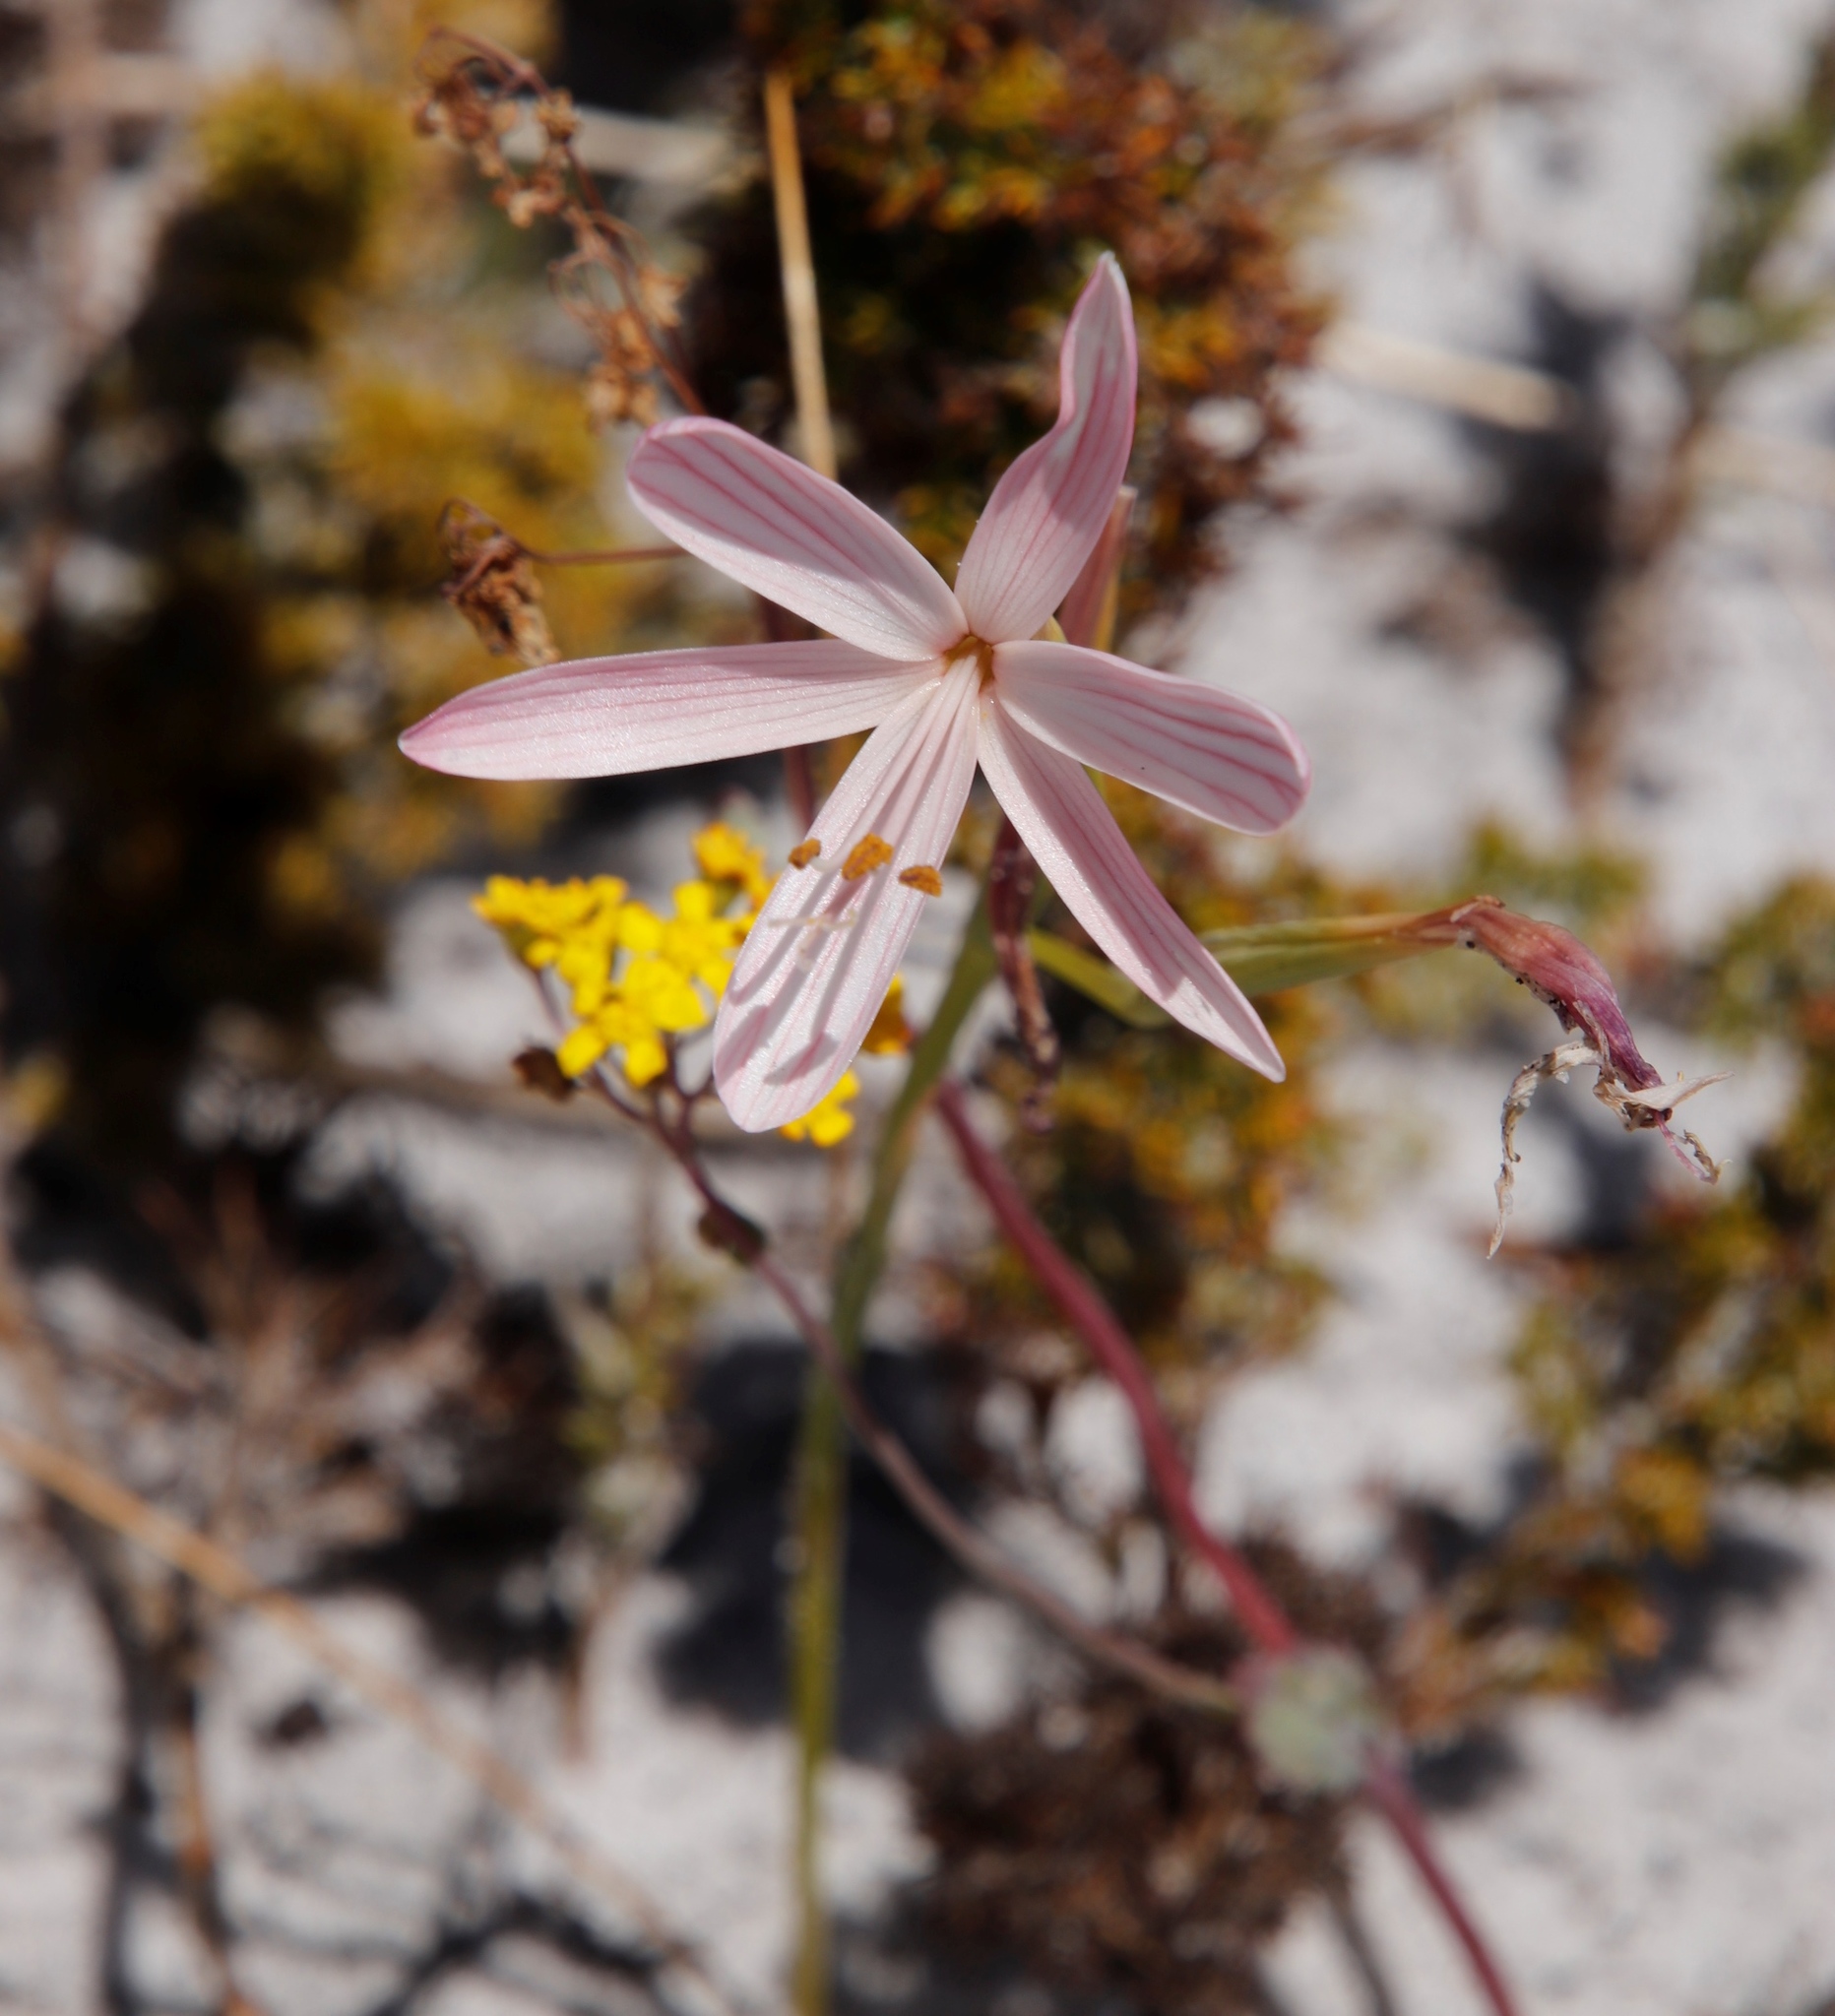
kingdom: Plantae
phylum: Tracheophyta
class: Liliopsida
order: Asparagales
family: Iridaceae
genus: Geissorhiza
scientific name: Geissorhiza bonae-spei
